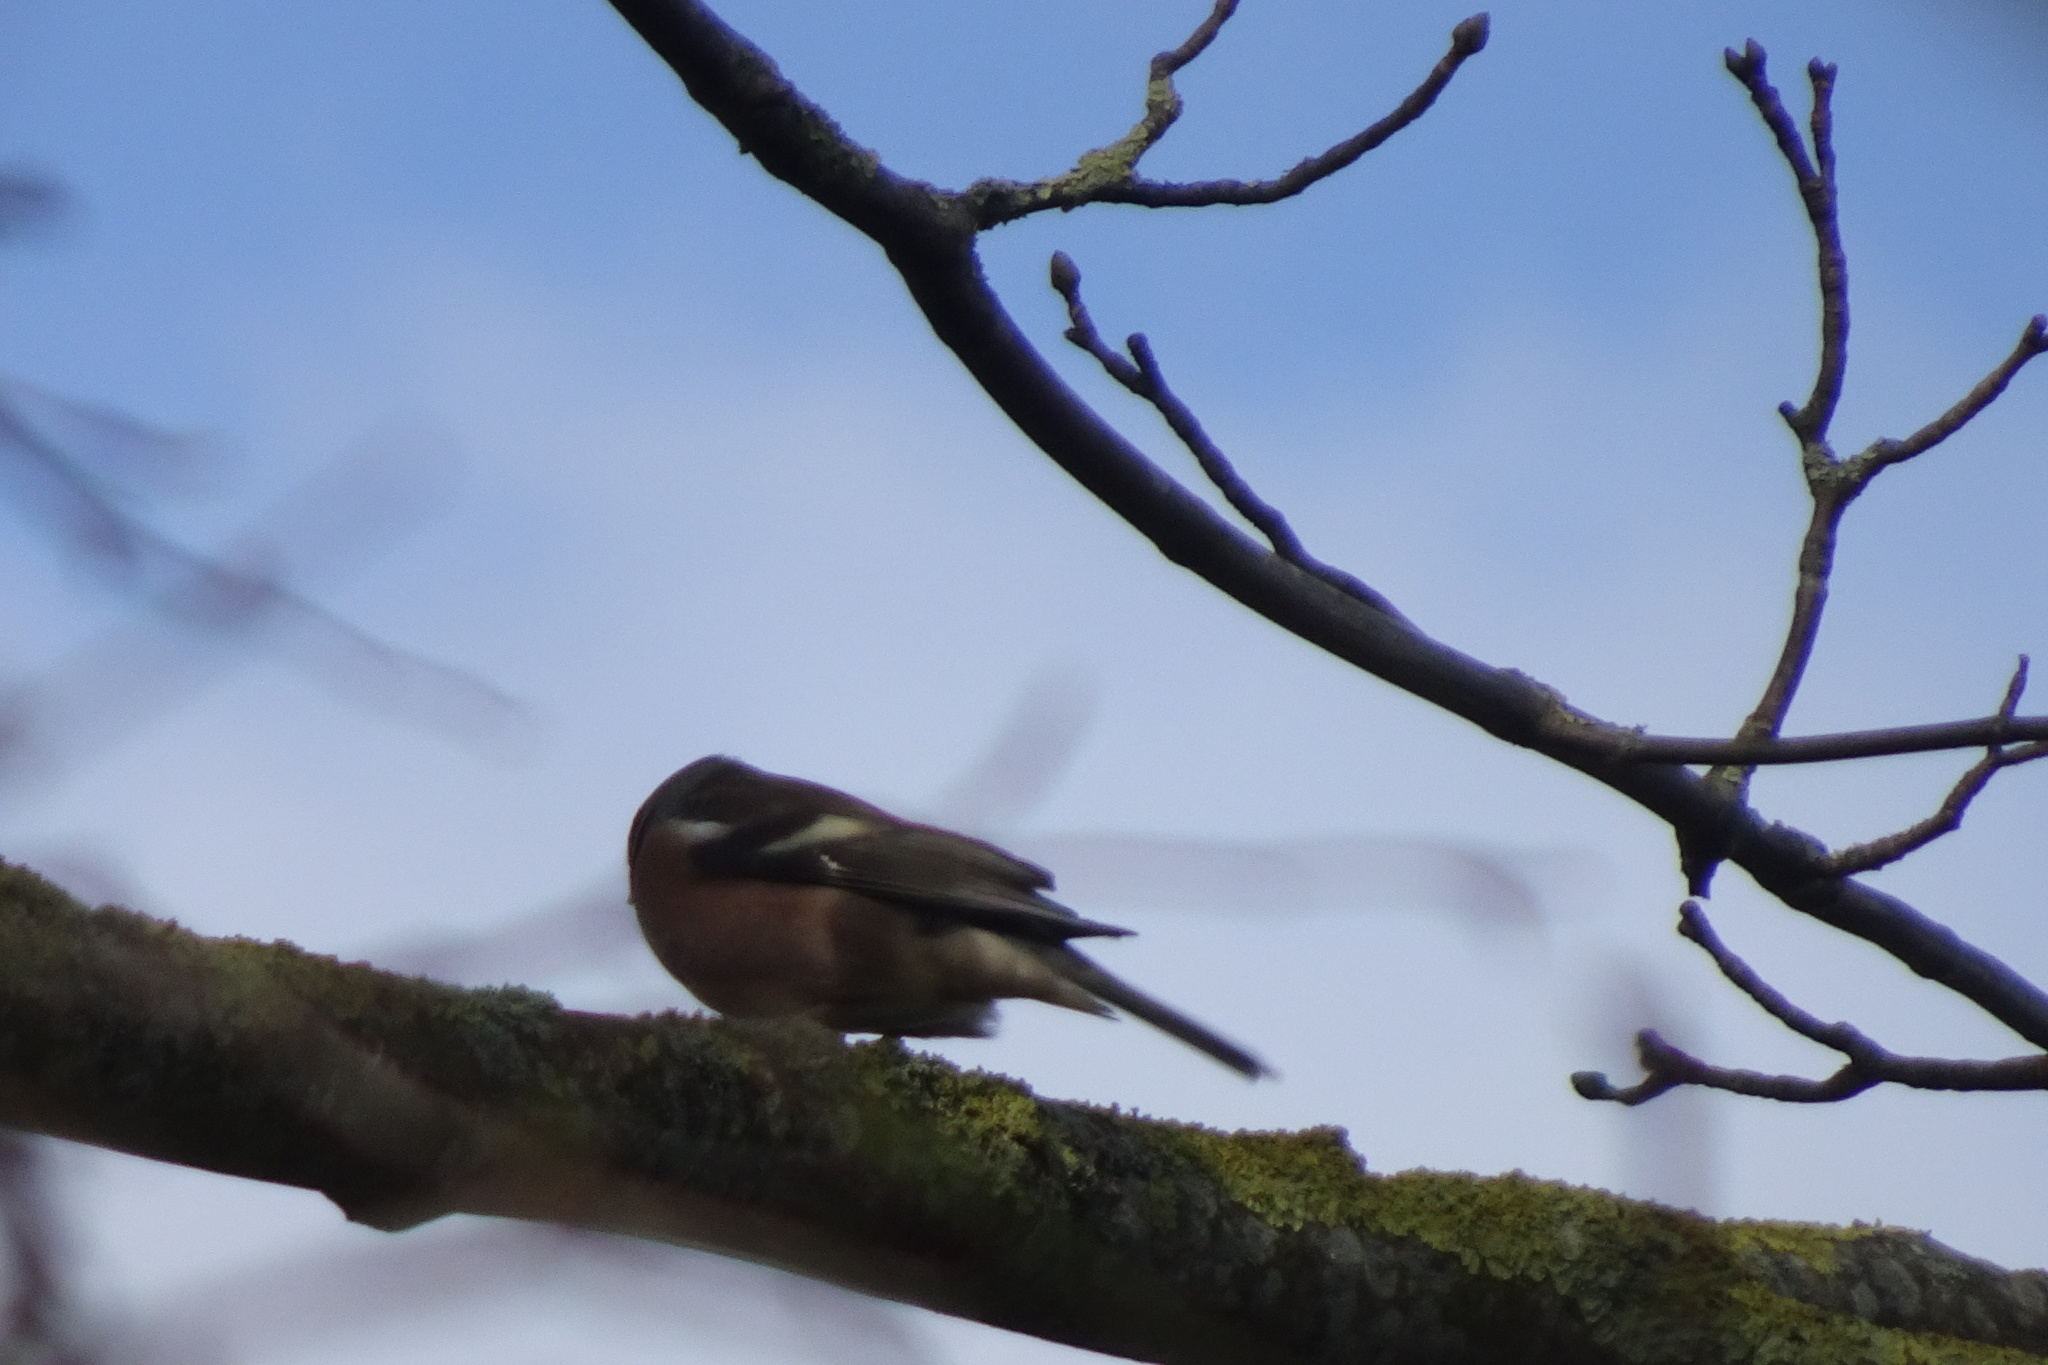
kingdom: Animalia
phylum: Chordata
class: Aves
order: Passeriformes
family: Fringillidae
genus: Fringilla
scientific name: Fringilla coelebs
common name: Common chaffinch
